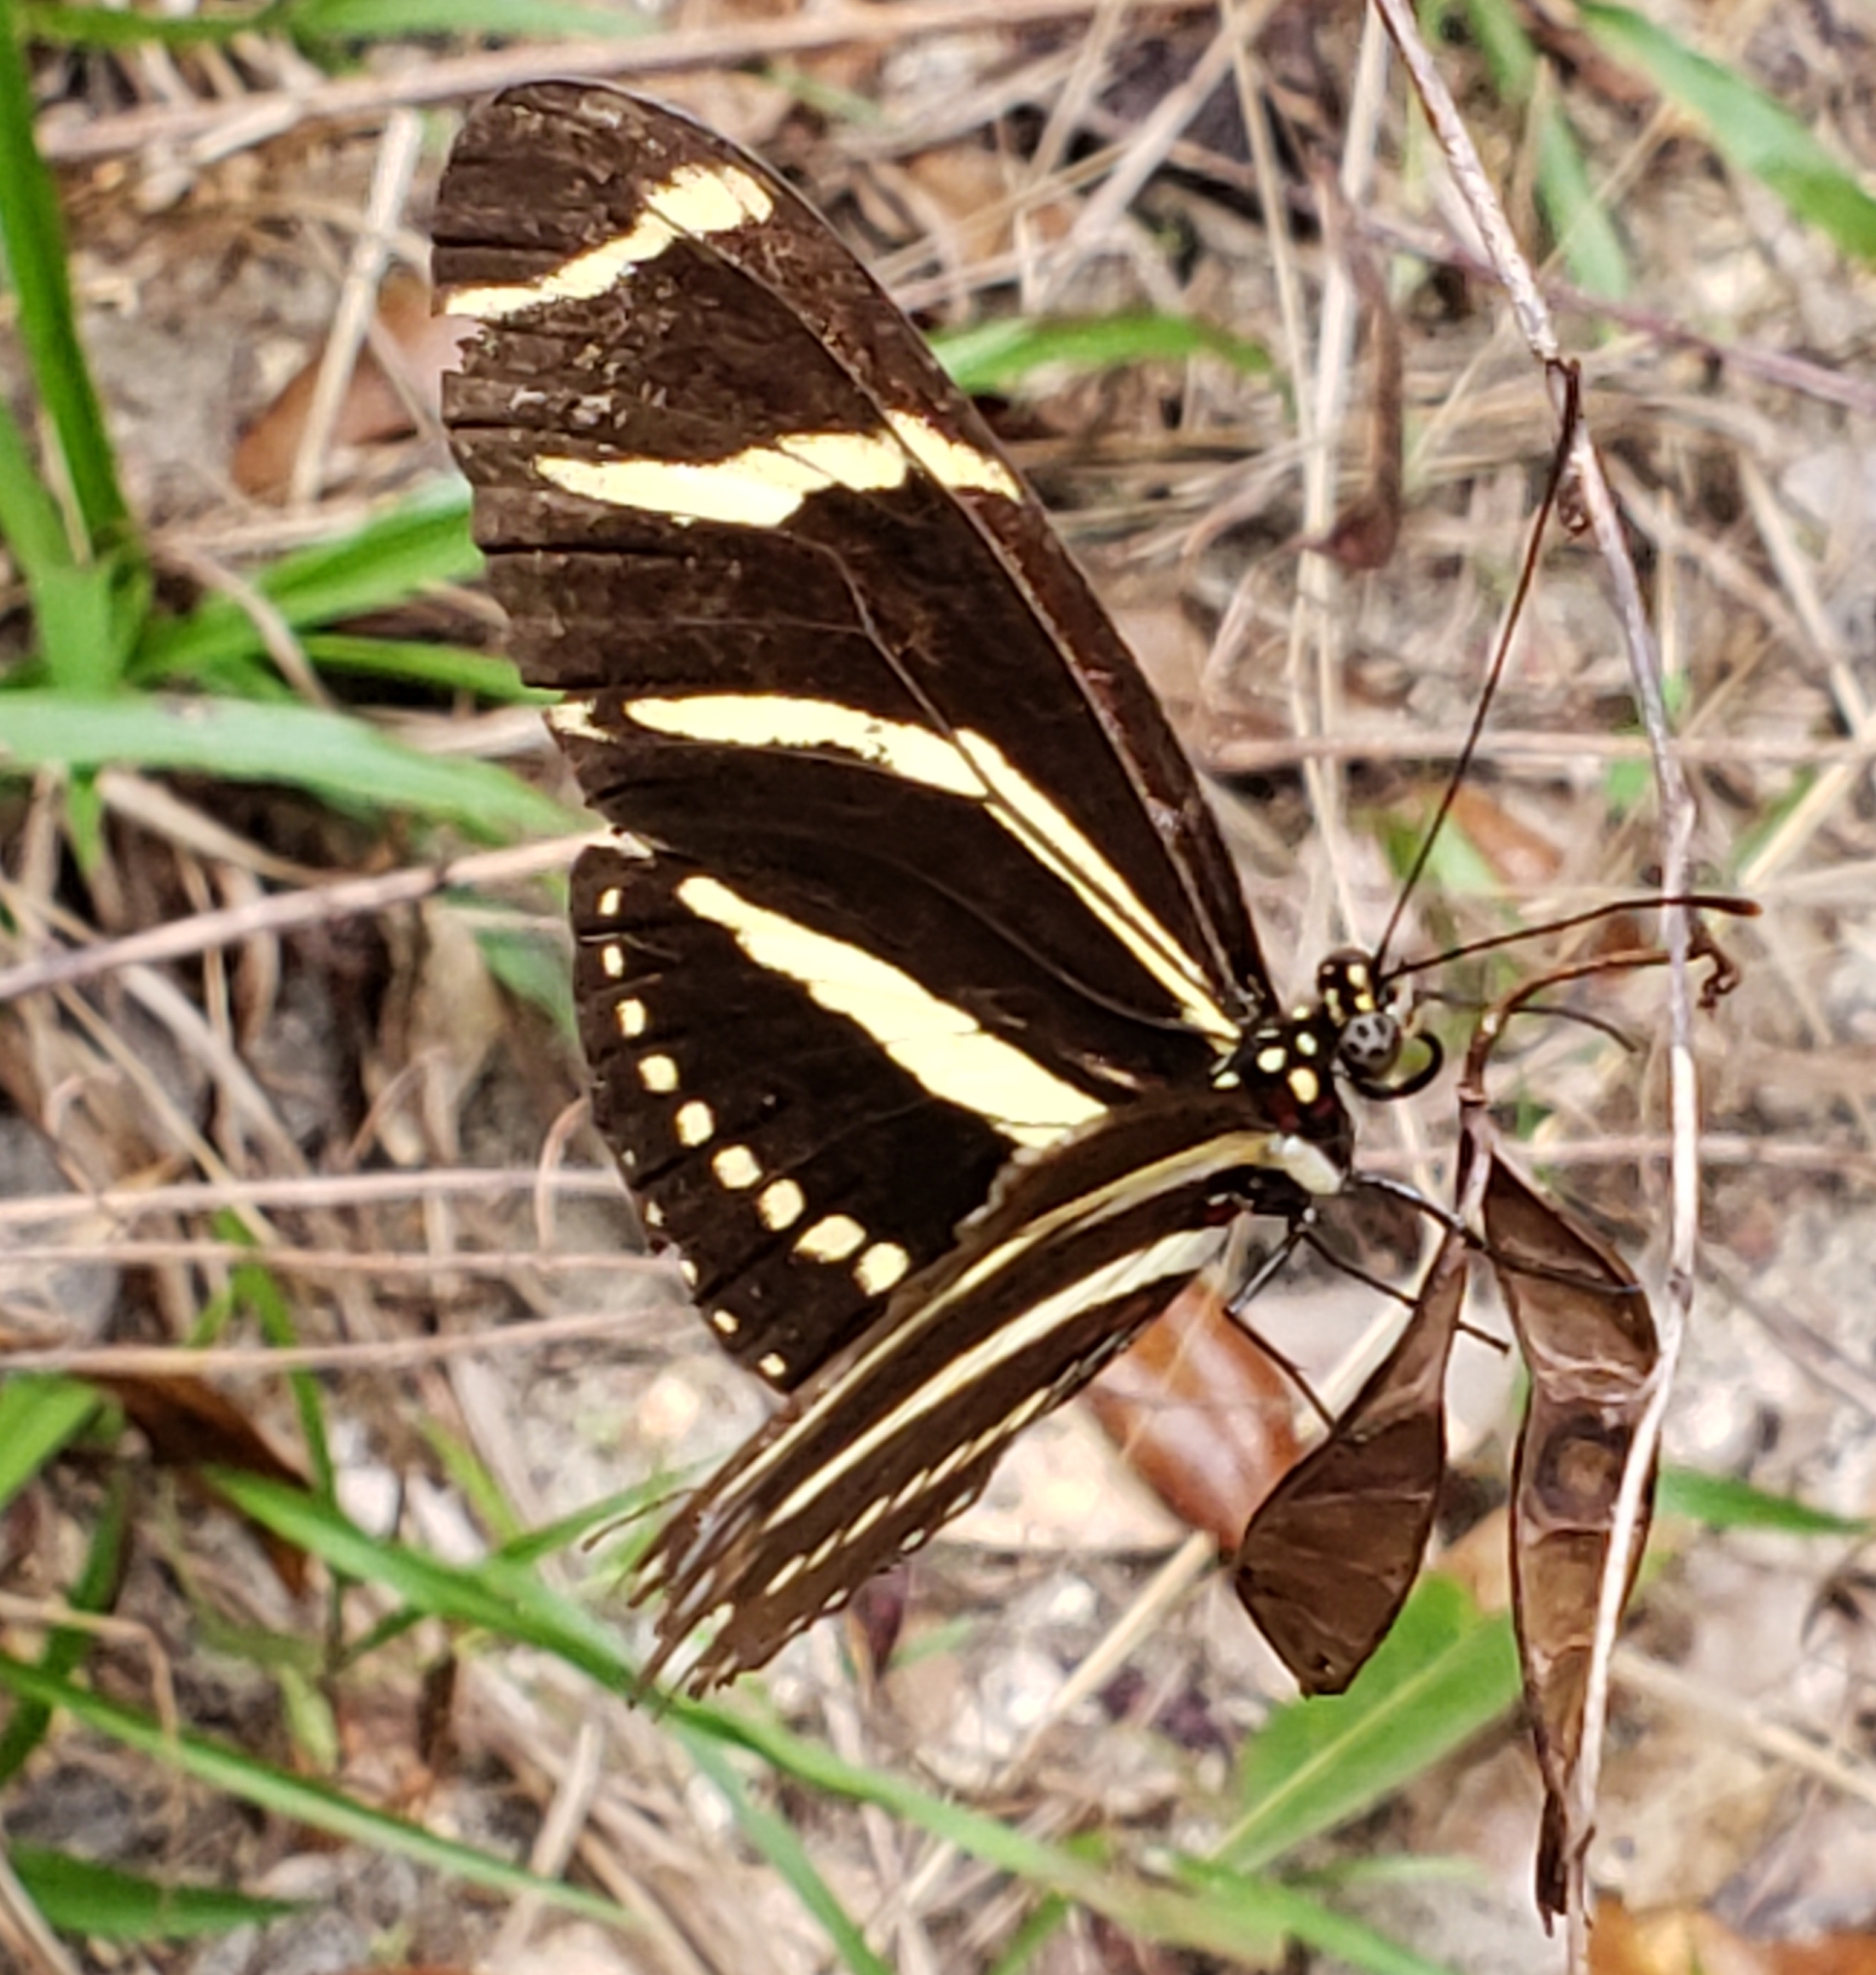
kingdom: Animalia
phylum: Arthropoda
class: Insecta
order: Lepidoptera
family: Nymphalidae
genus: Heliconius
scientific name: Heliconius charithonia
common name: Zebra long wing
